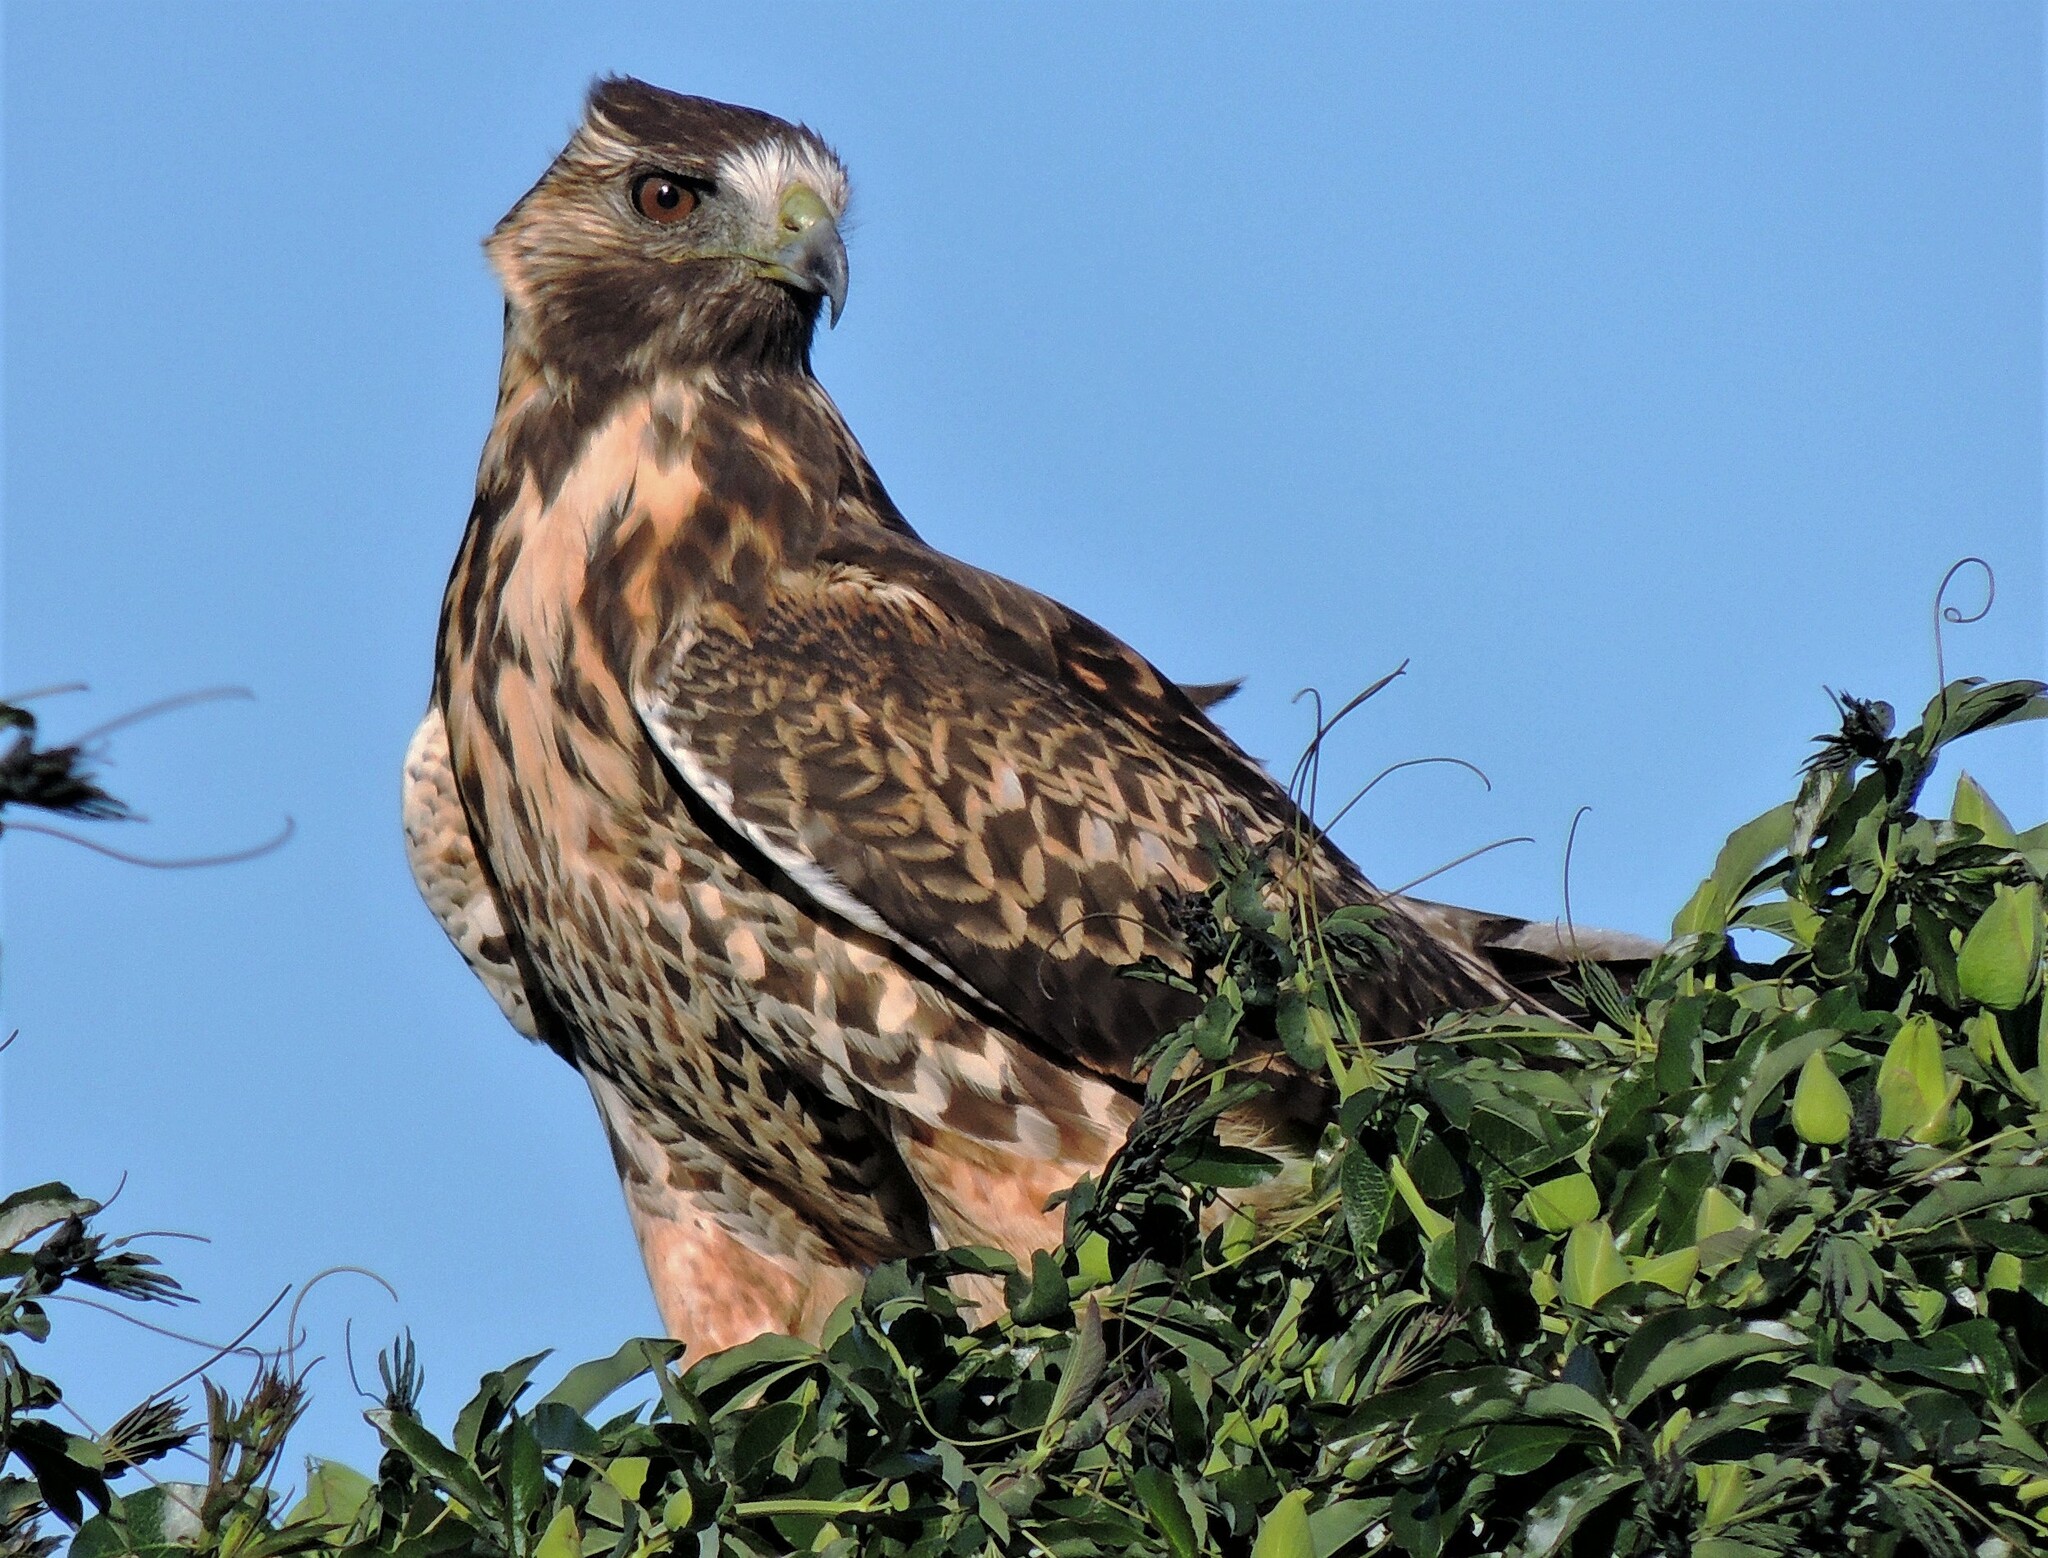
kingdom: Animalia
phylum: Chordata
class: Aves
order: Accipitriformes
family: Accipitridae
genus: Buteo
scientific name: Buteo polyosoma
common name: Variable hawk
